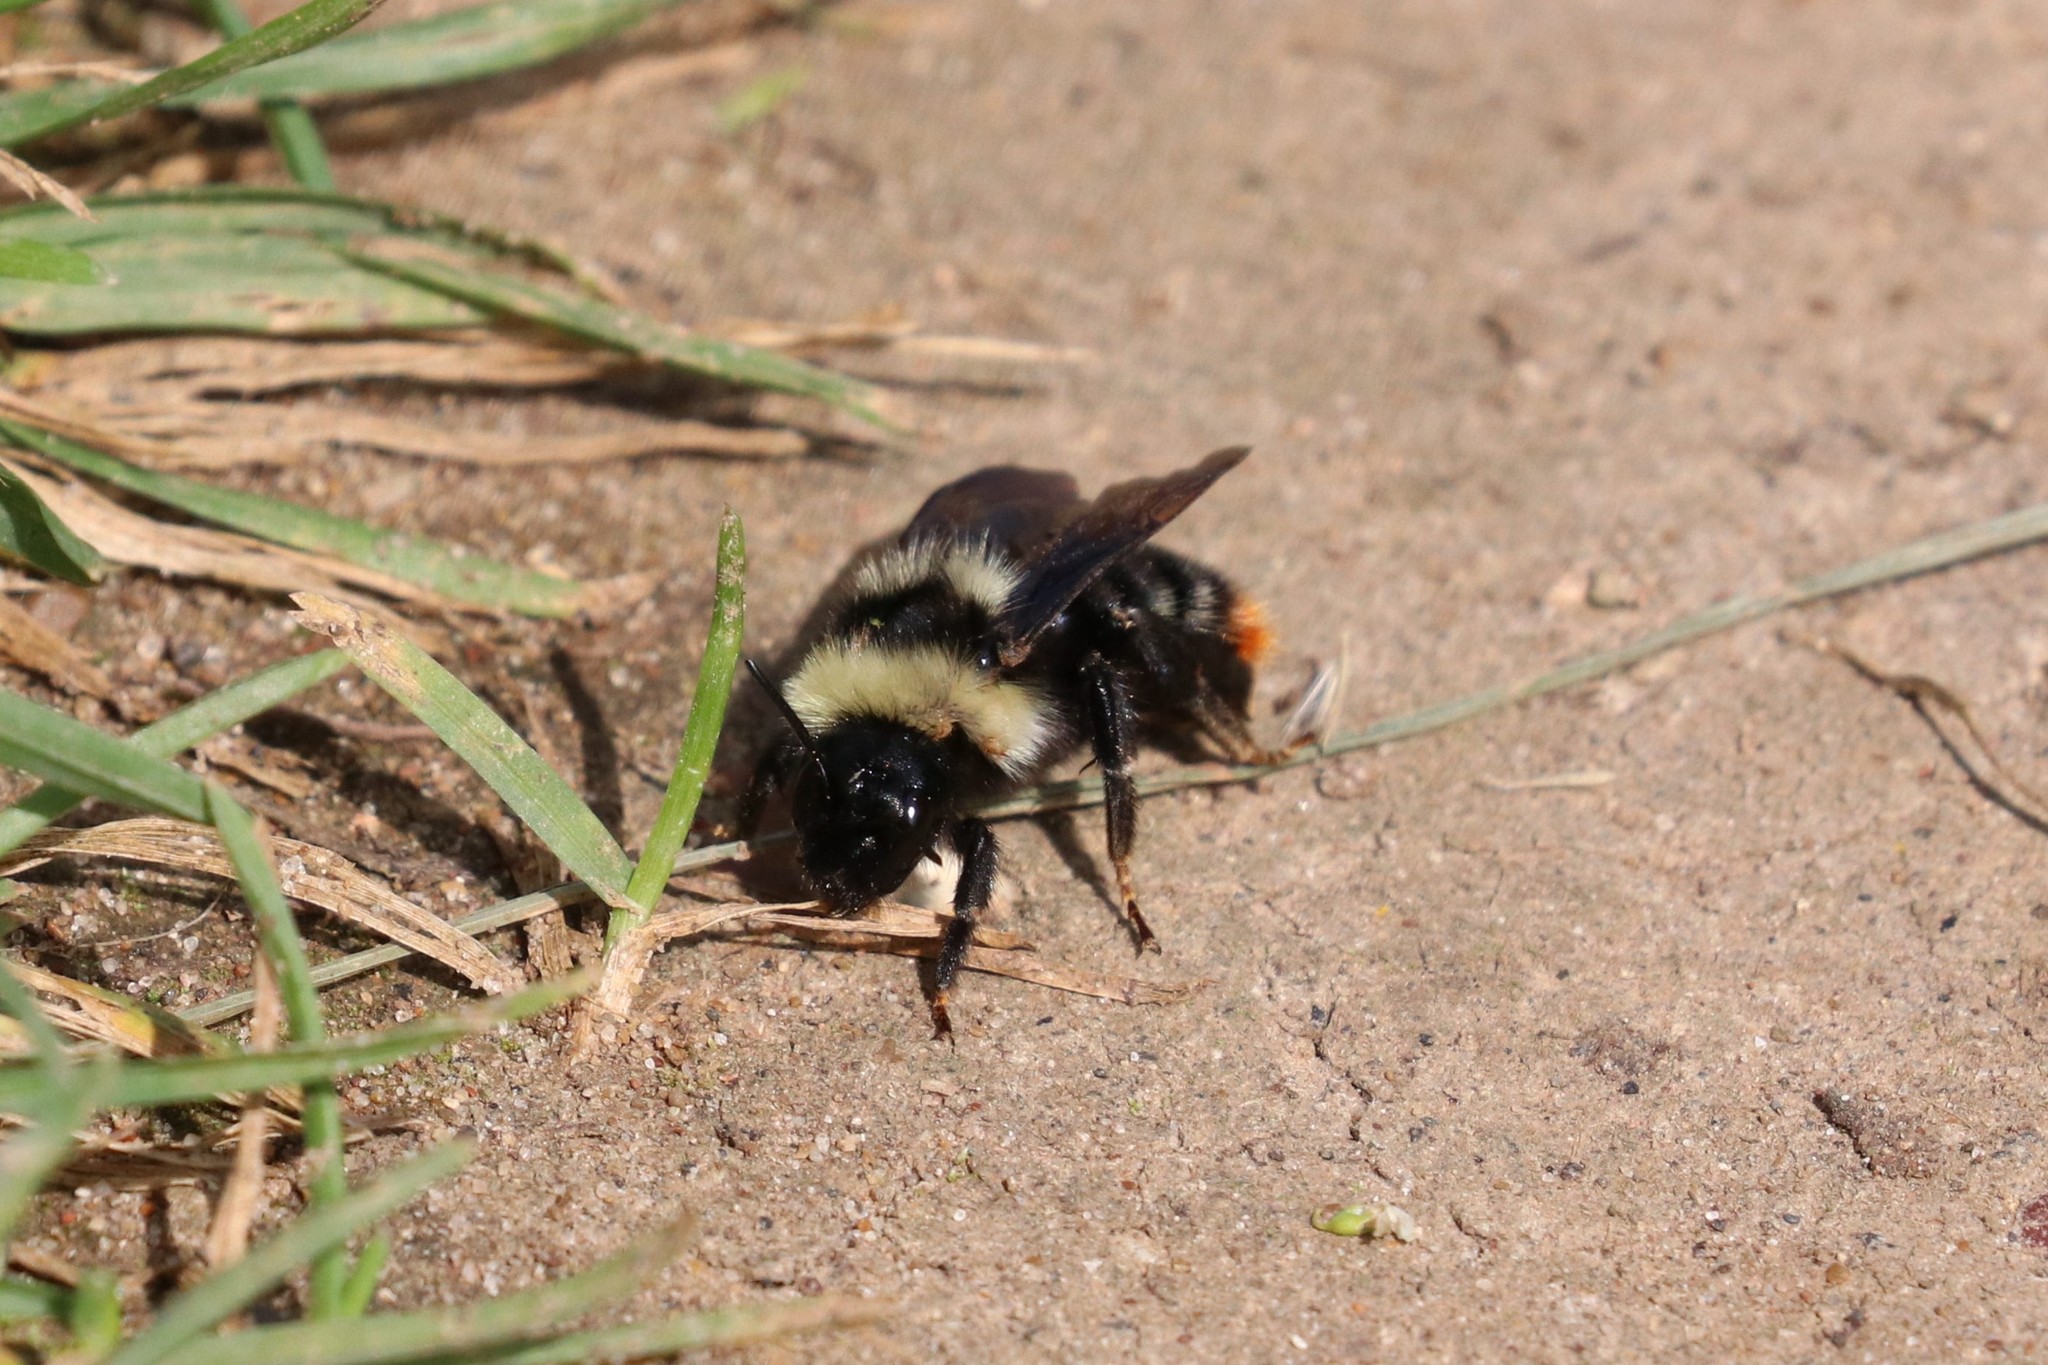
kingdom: Animalia
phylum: Arthropoda
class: Insecta
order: Hymenoptera
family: Apidae
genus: Bombus
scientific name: Bombus rupestris
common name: Hill cuckoo-bee
